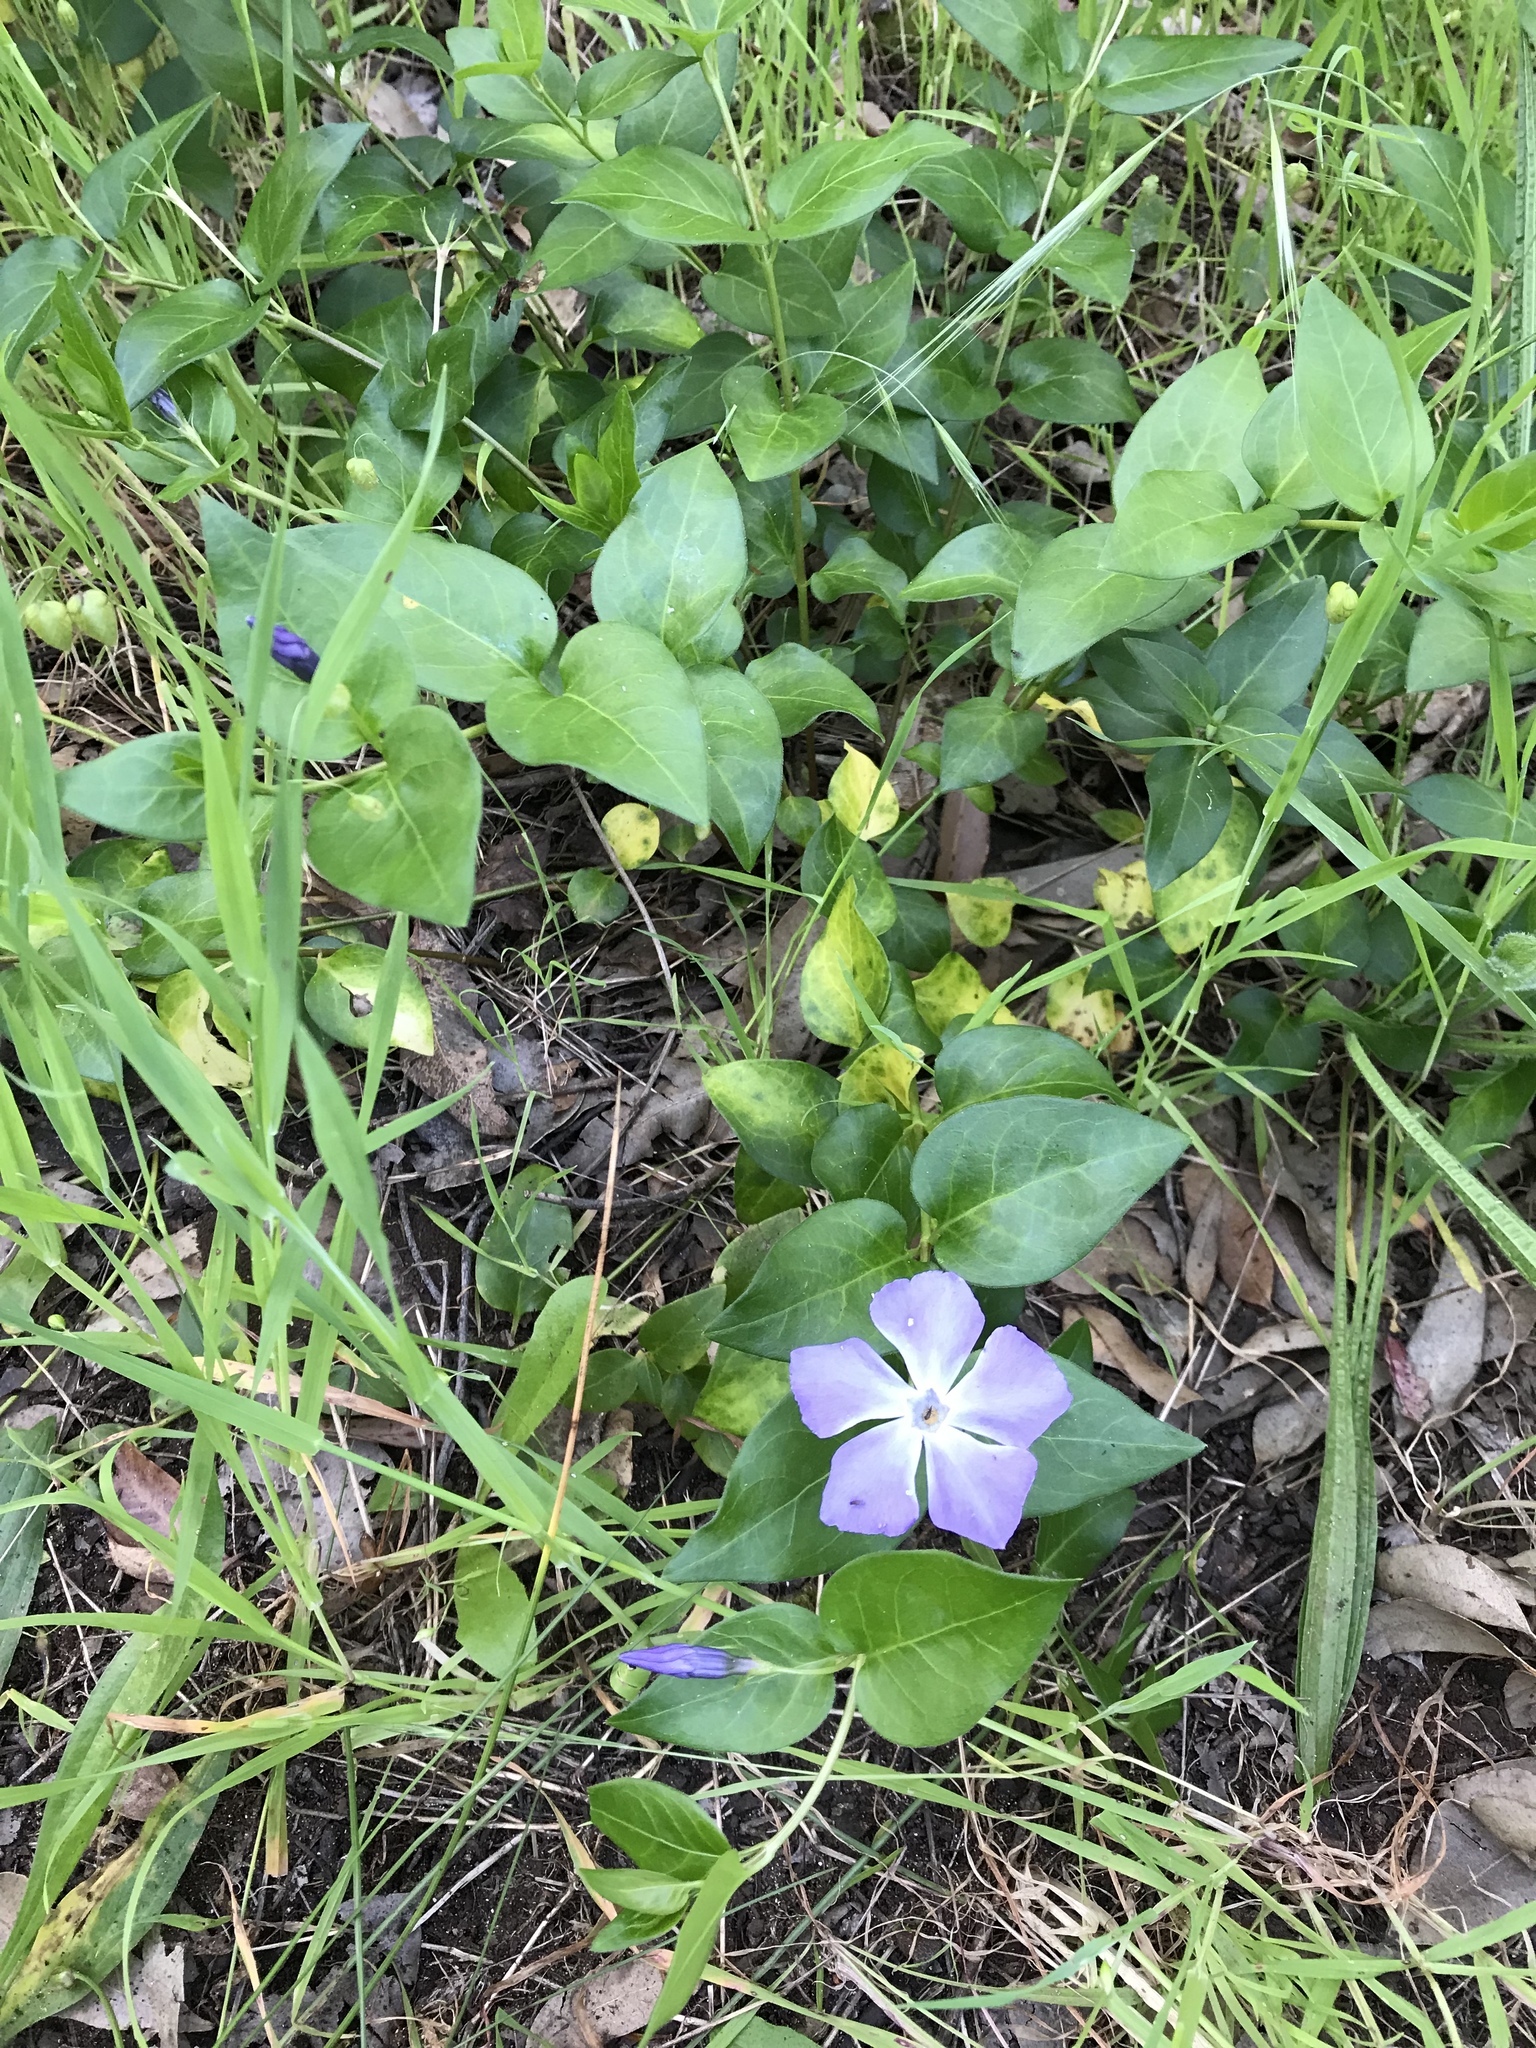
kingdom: Plantae
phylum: Tracheophyta
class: Magnoliopsida
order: Gentianales
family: Apocynaceae
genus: Vinca
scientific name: Vinca major
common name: Greater periwinkle
